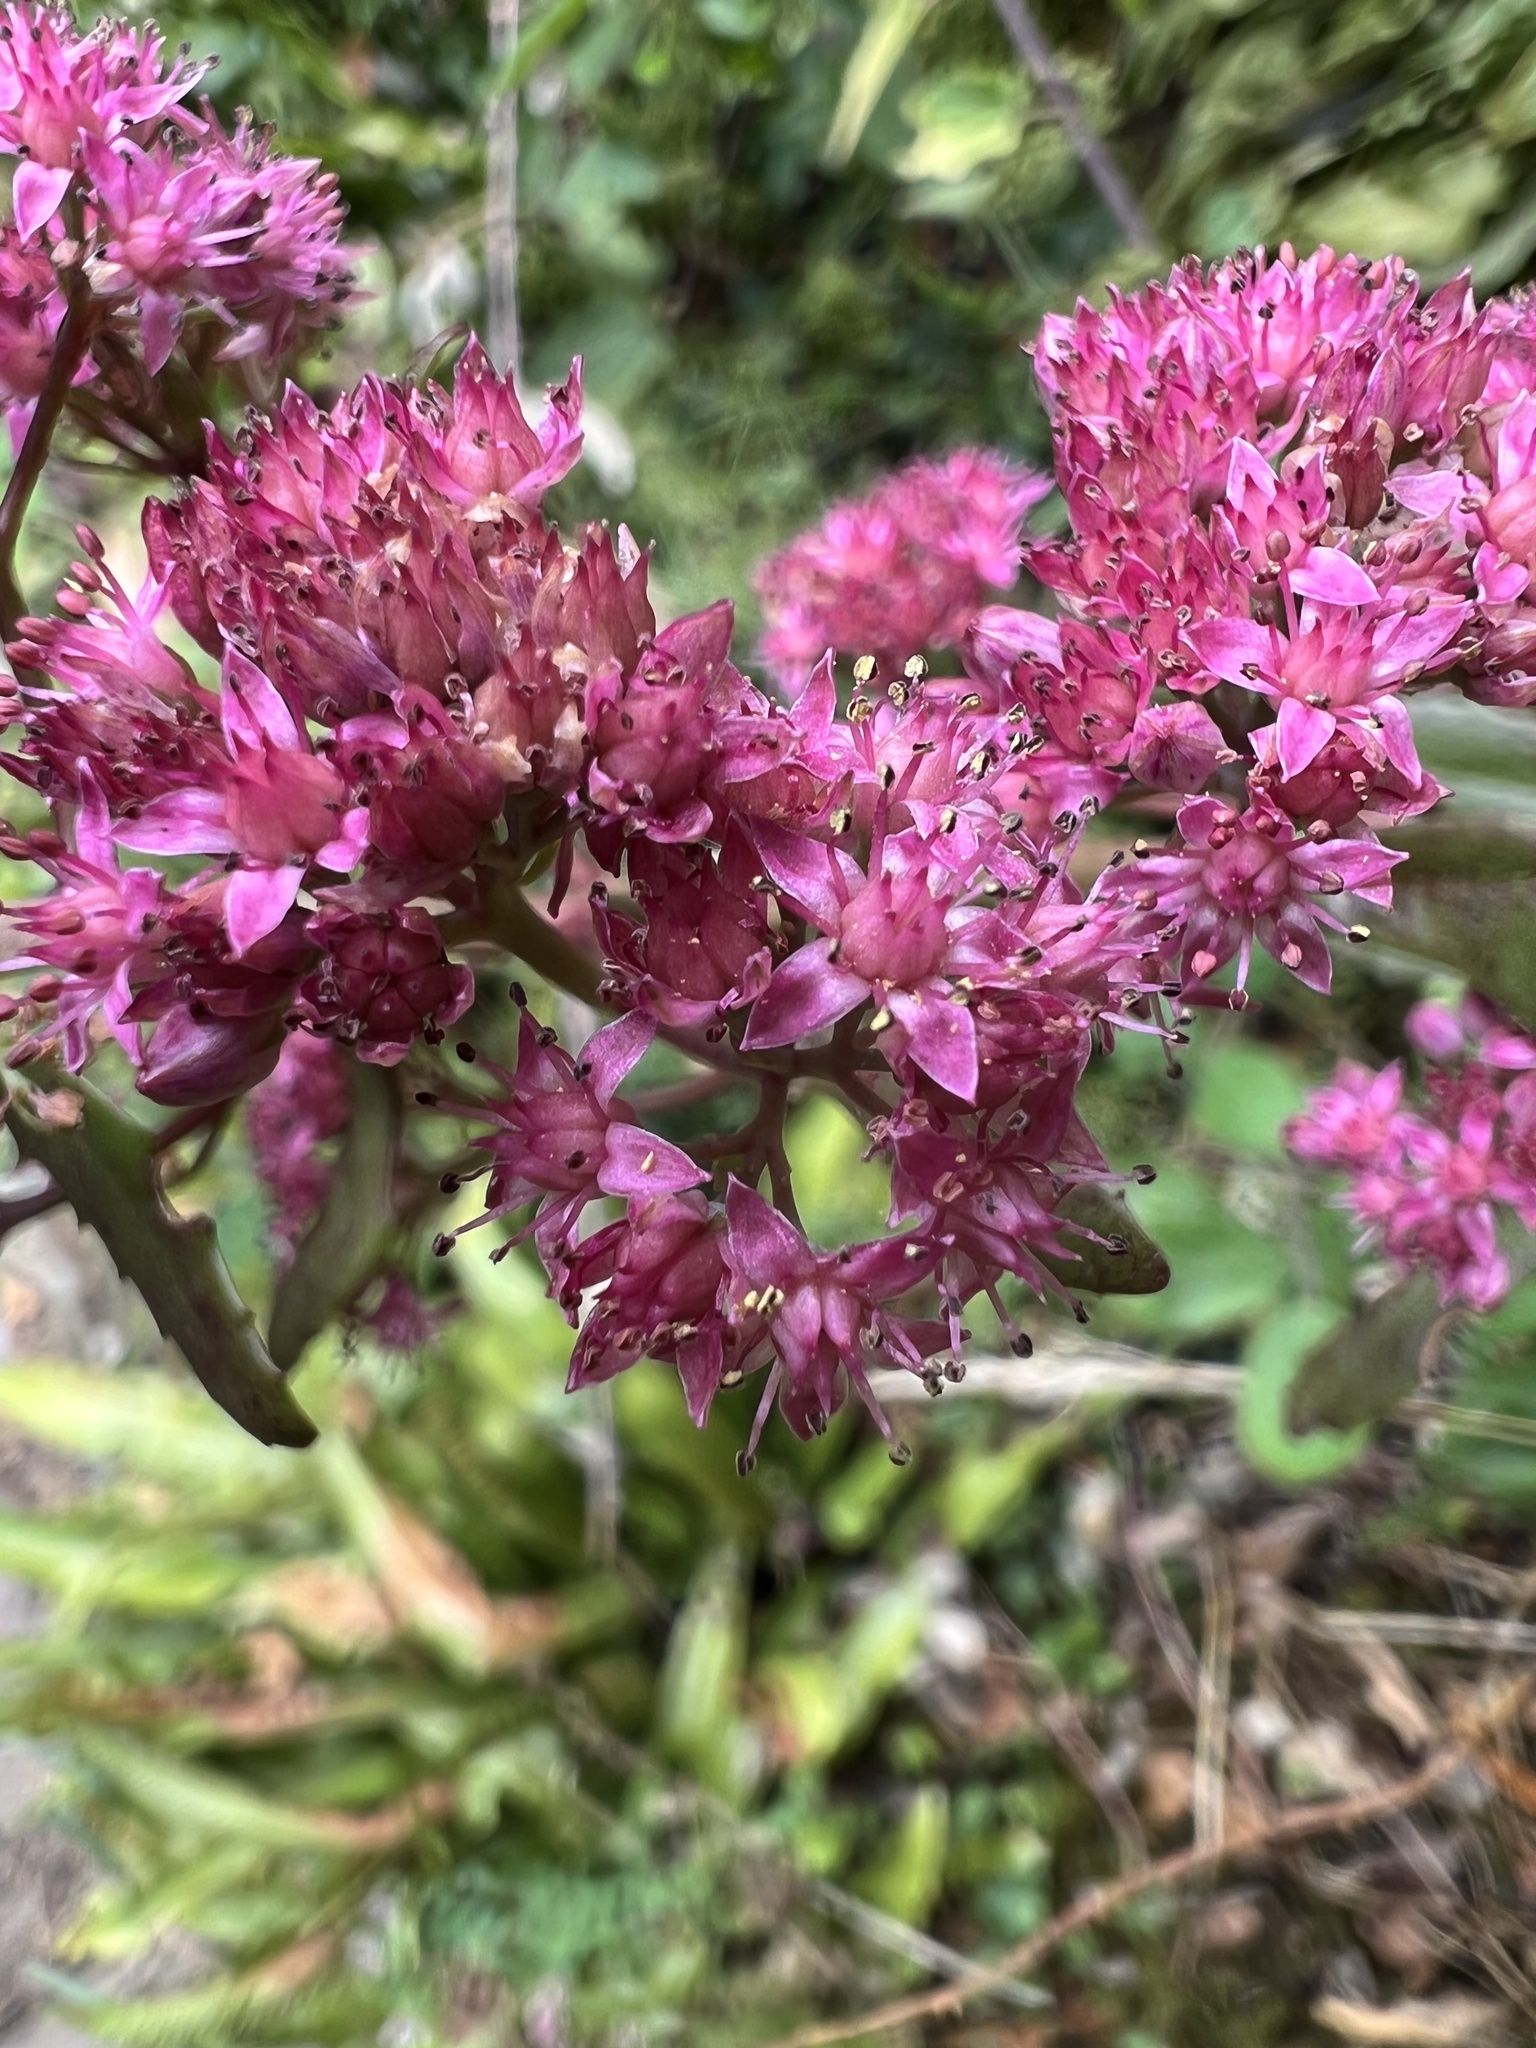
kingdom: Plantae
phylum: Tracheophyta
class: Magnoliopsida
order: Saxifragales
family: Crassulaceae
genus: Hylotelephium
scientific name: Hylotelephium telephium
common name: Live-forever
